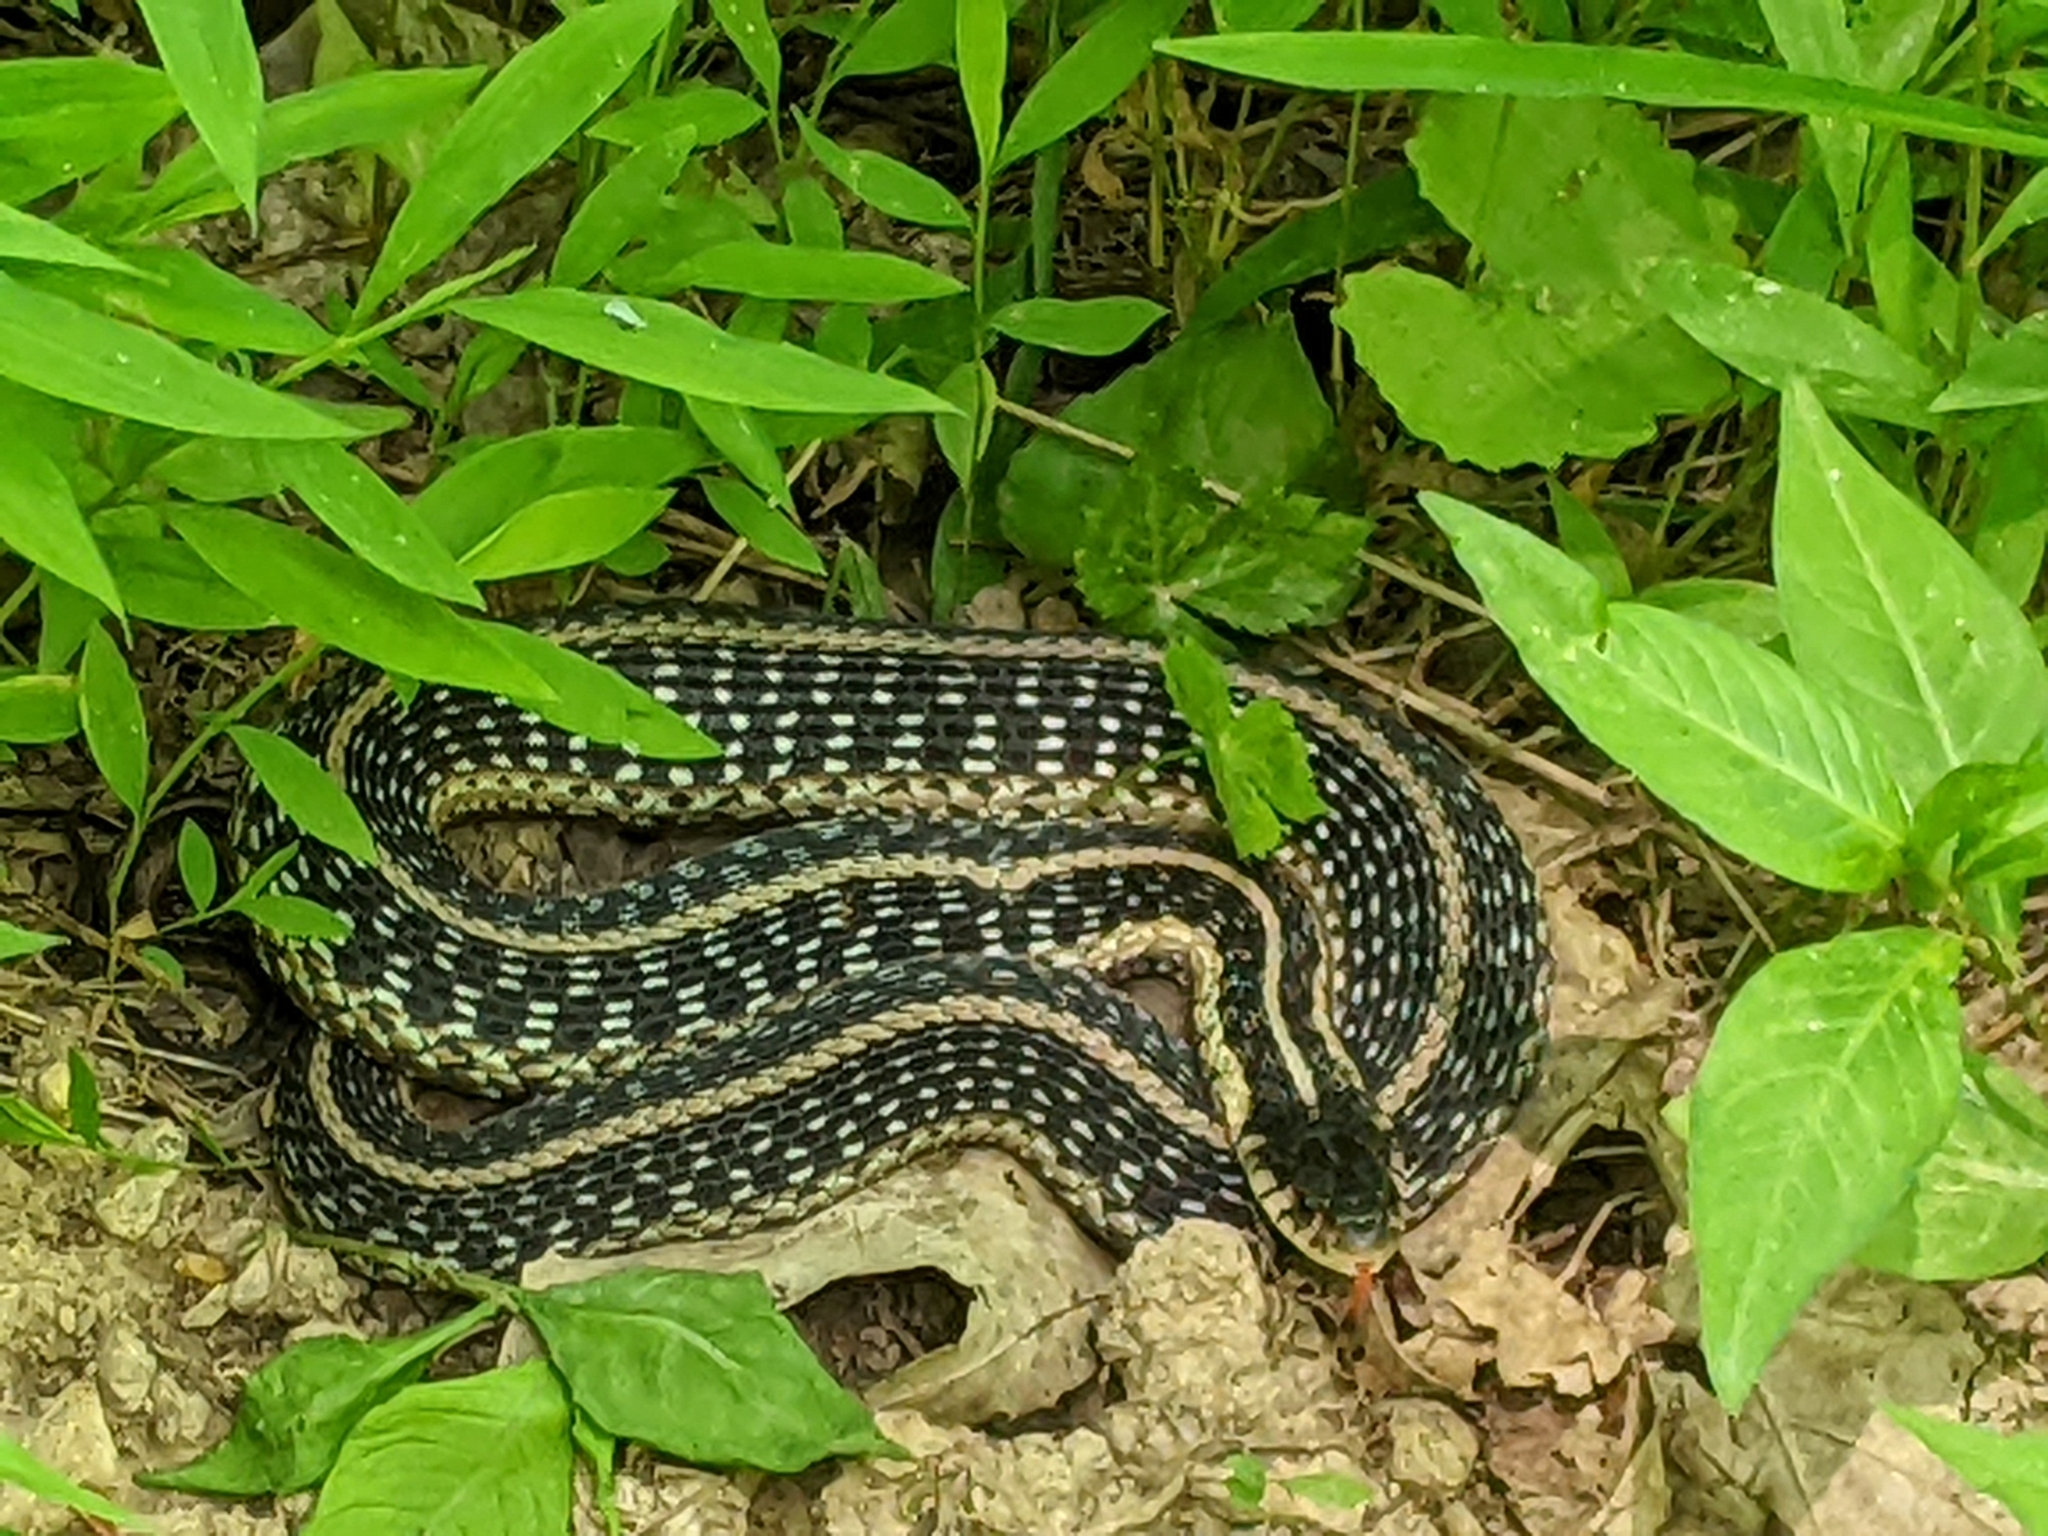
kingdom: Animalia
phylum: Chordata
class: Squamata
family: Colubridae
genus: Thamnophis
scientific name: Thamnophis sirtalis
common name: Common garter snake
